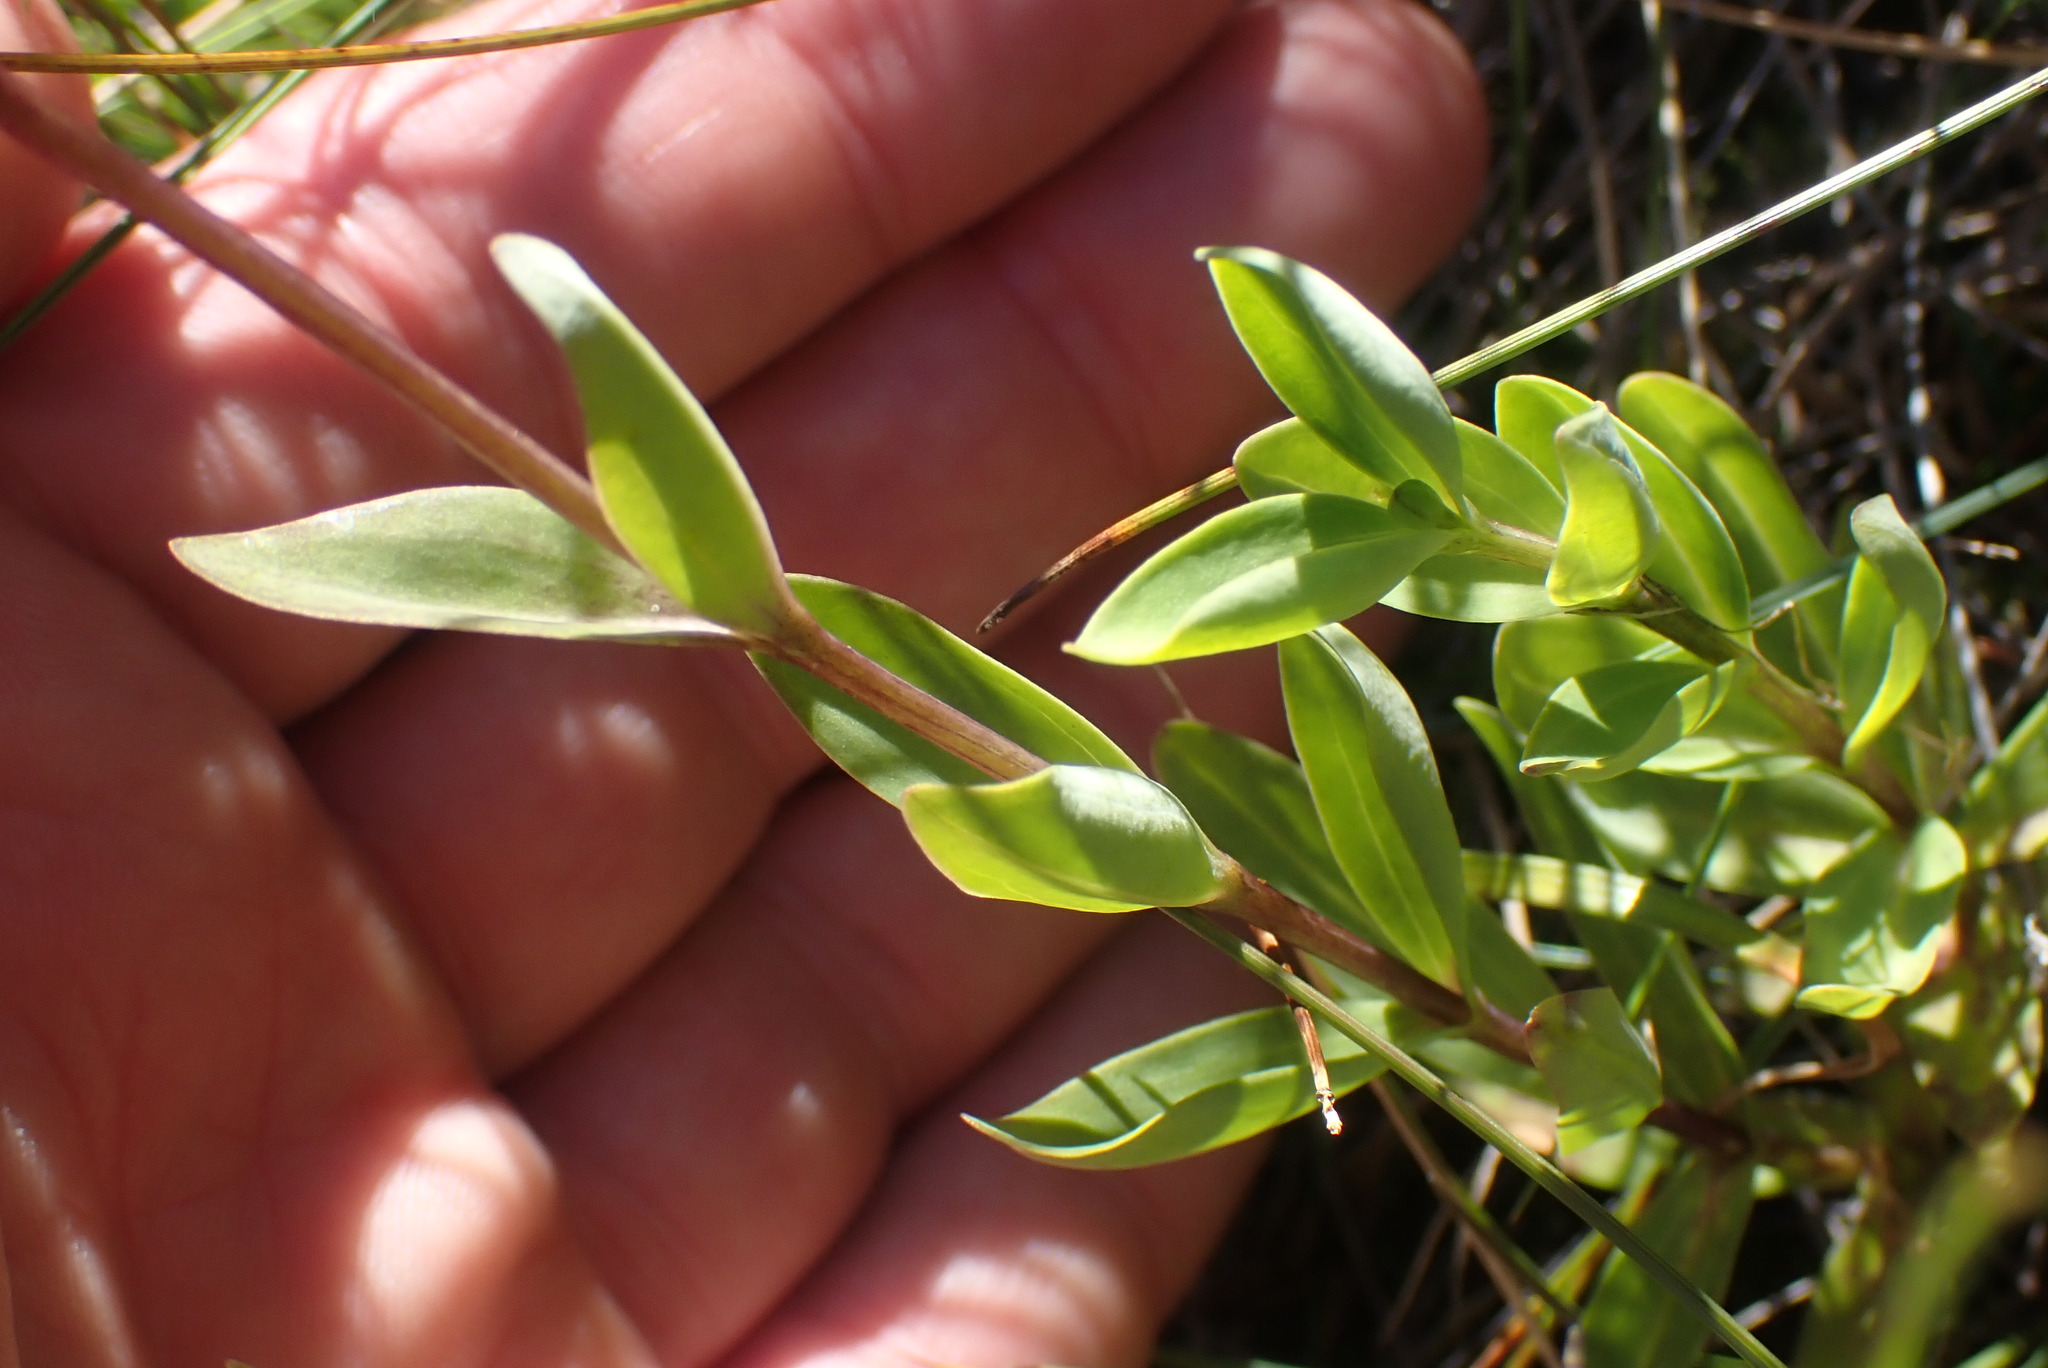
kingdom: Plantae
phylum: Tracheophyta
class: Magnoliopsida
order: Gentianales
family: Gentianaceae
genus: Gentiana
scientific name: Gentiana sceptrum
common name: Pacific gentian
